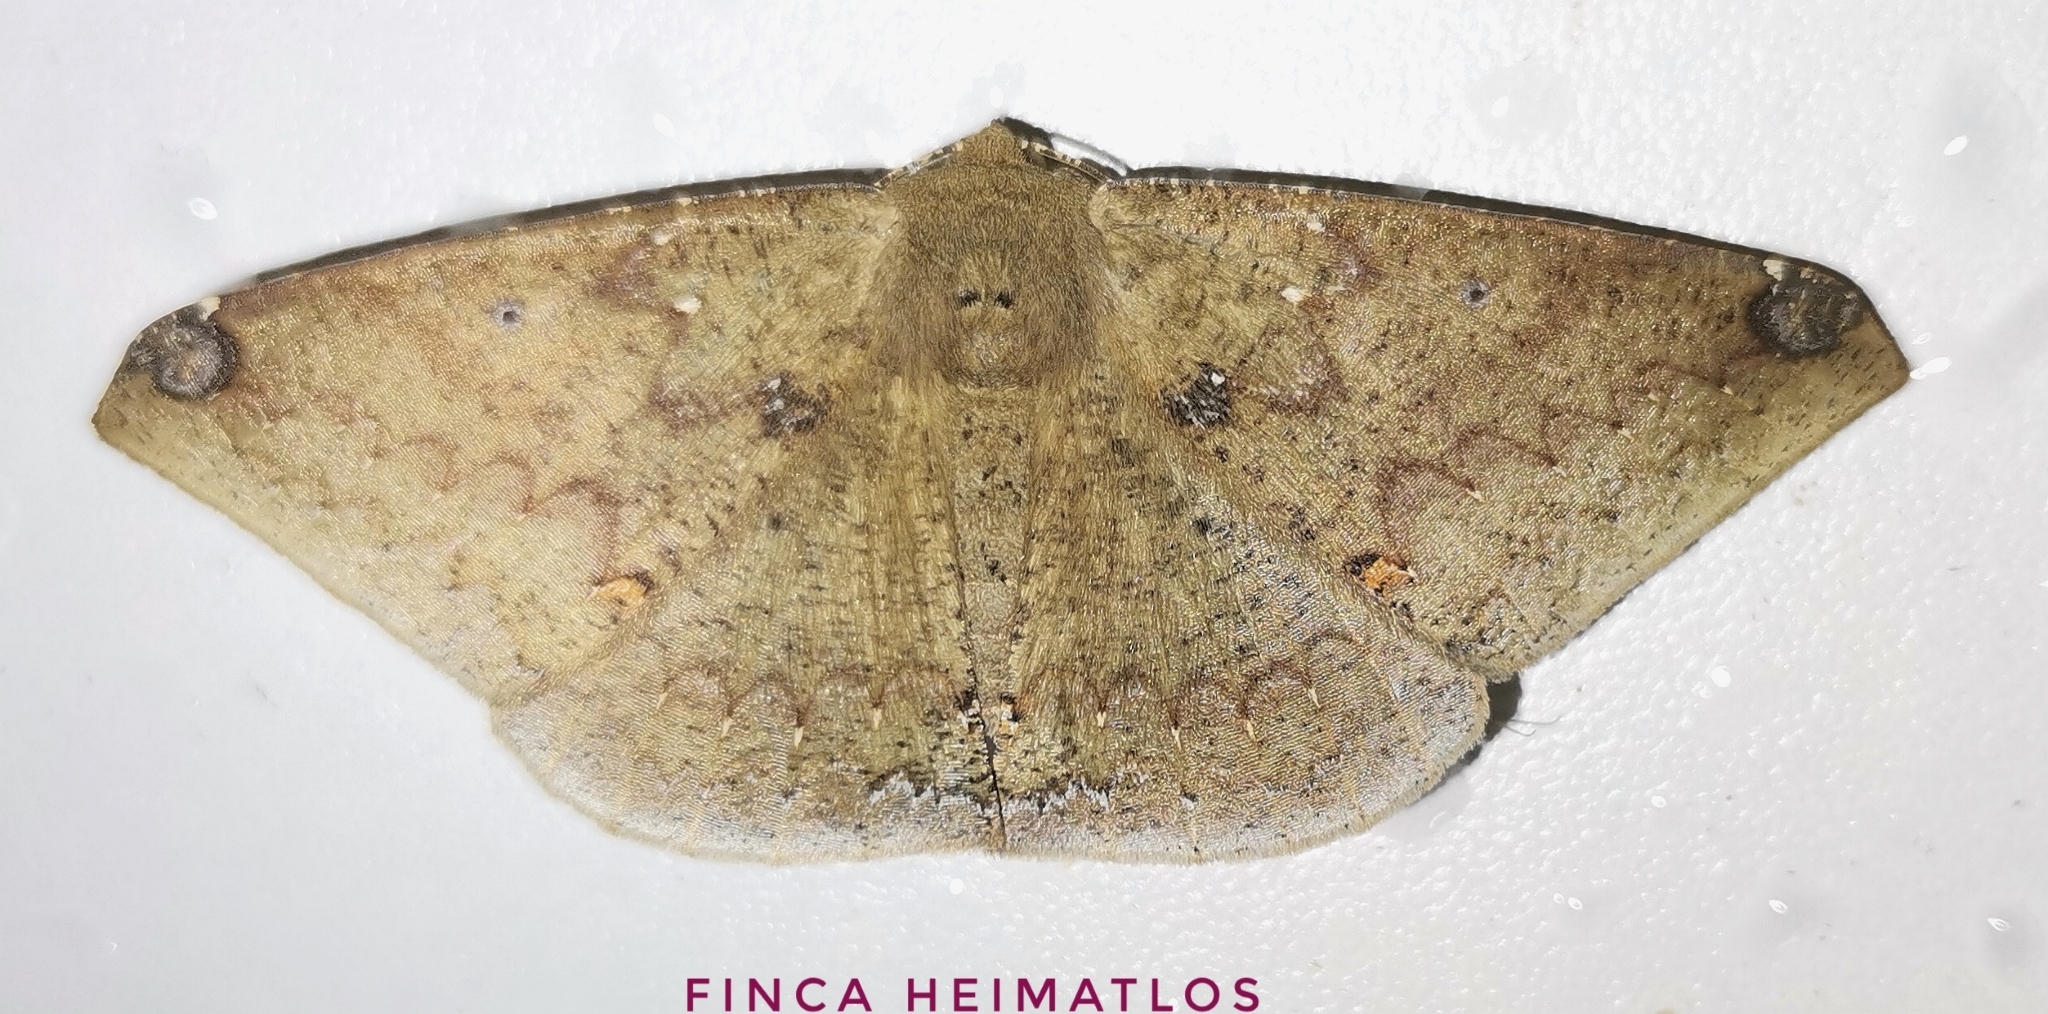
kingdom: Animalia
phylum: Arthropoda
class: Insecta
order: Lepidoptera
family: Geometridae
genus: Herbita
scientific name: Herbita dognini
